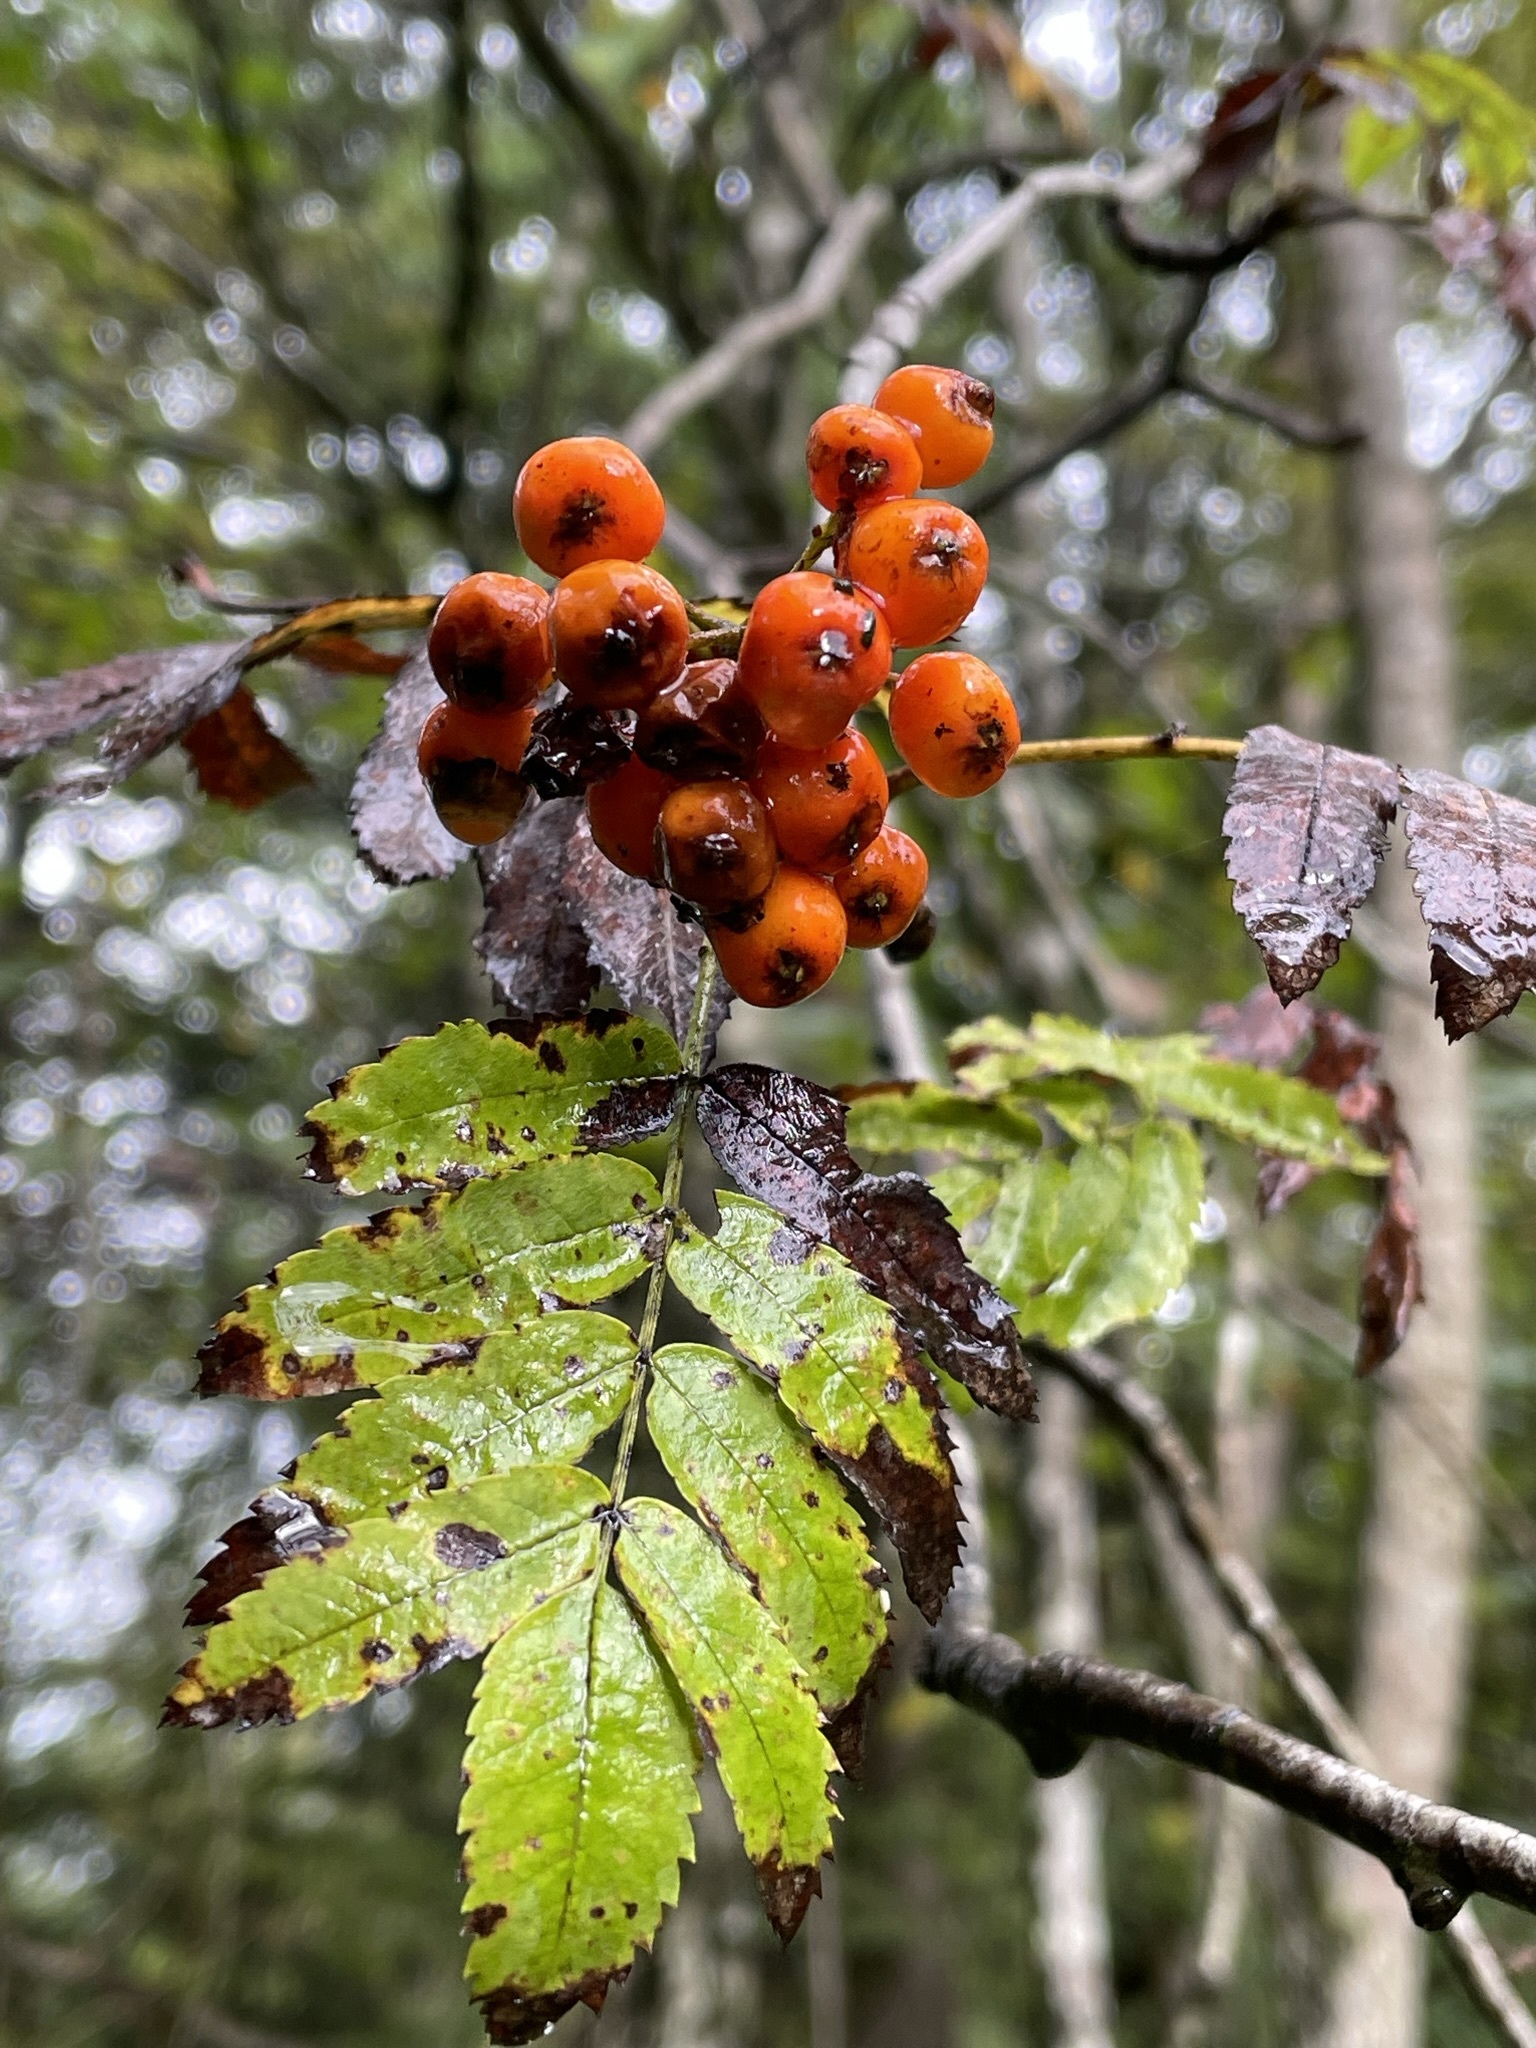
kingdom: Plantae
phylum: Tracheophyta
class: Magnoliopsida
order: Rosales
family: Rosaceae
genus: Sorbus
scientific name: Sorbus aucuparia
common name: Rowan
